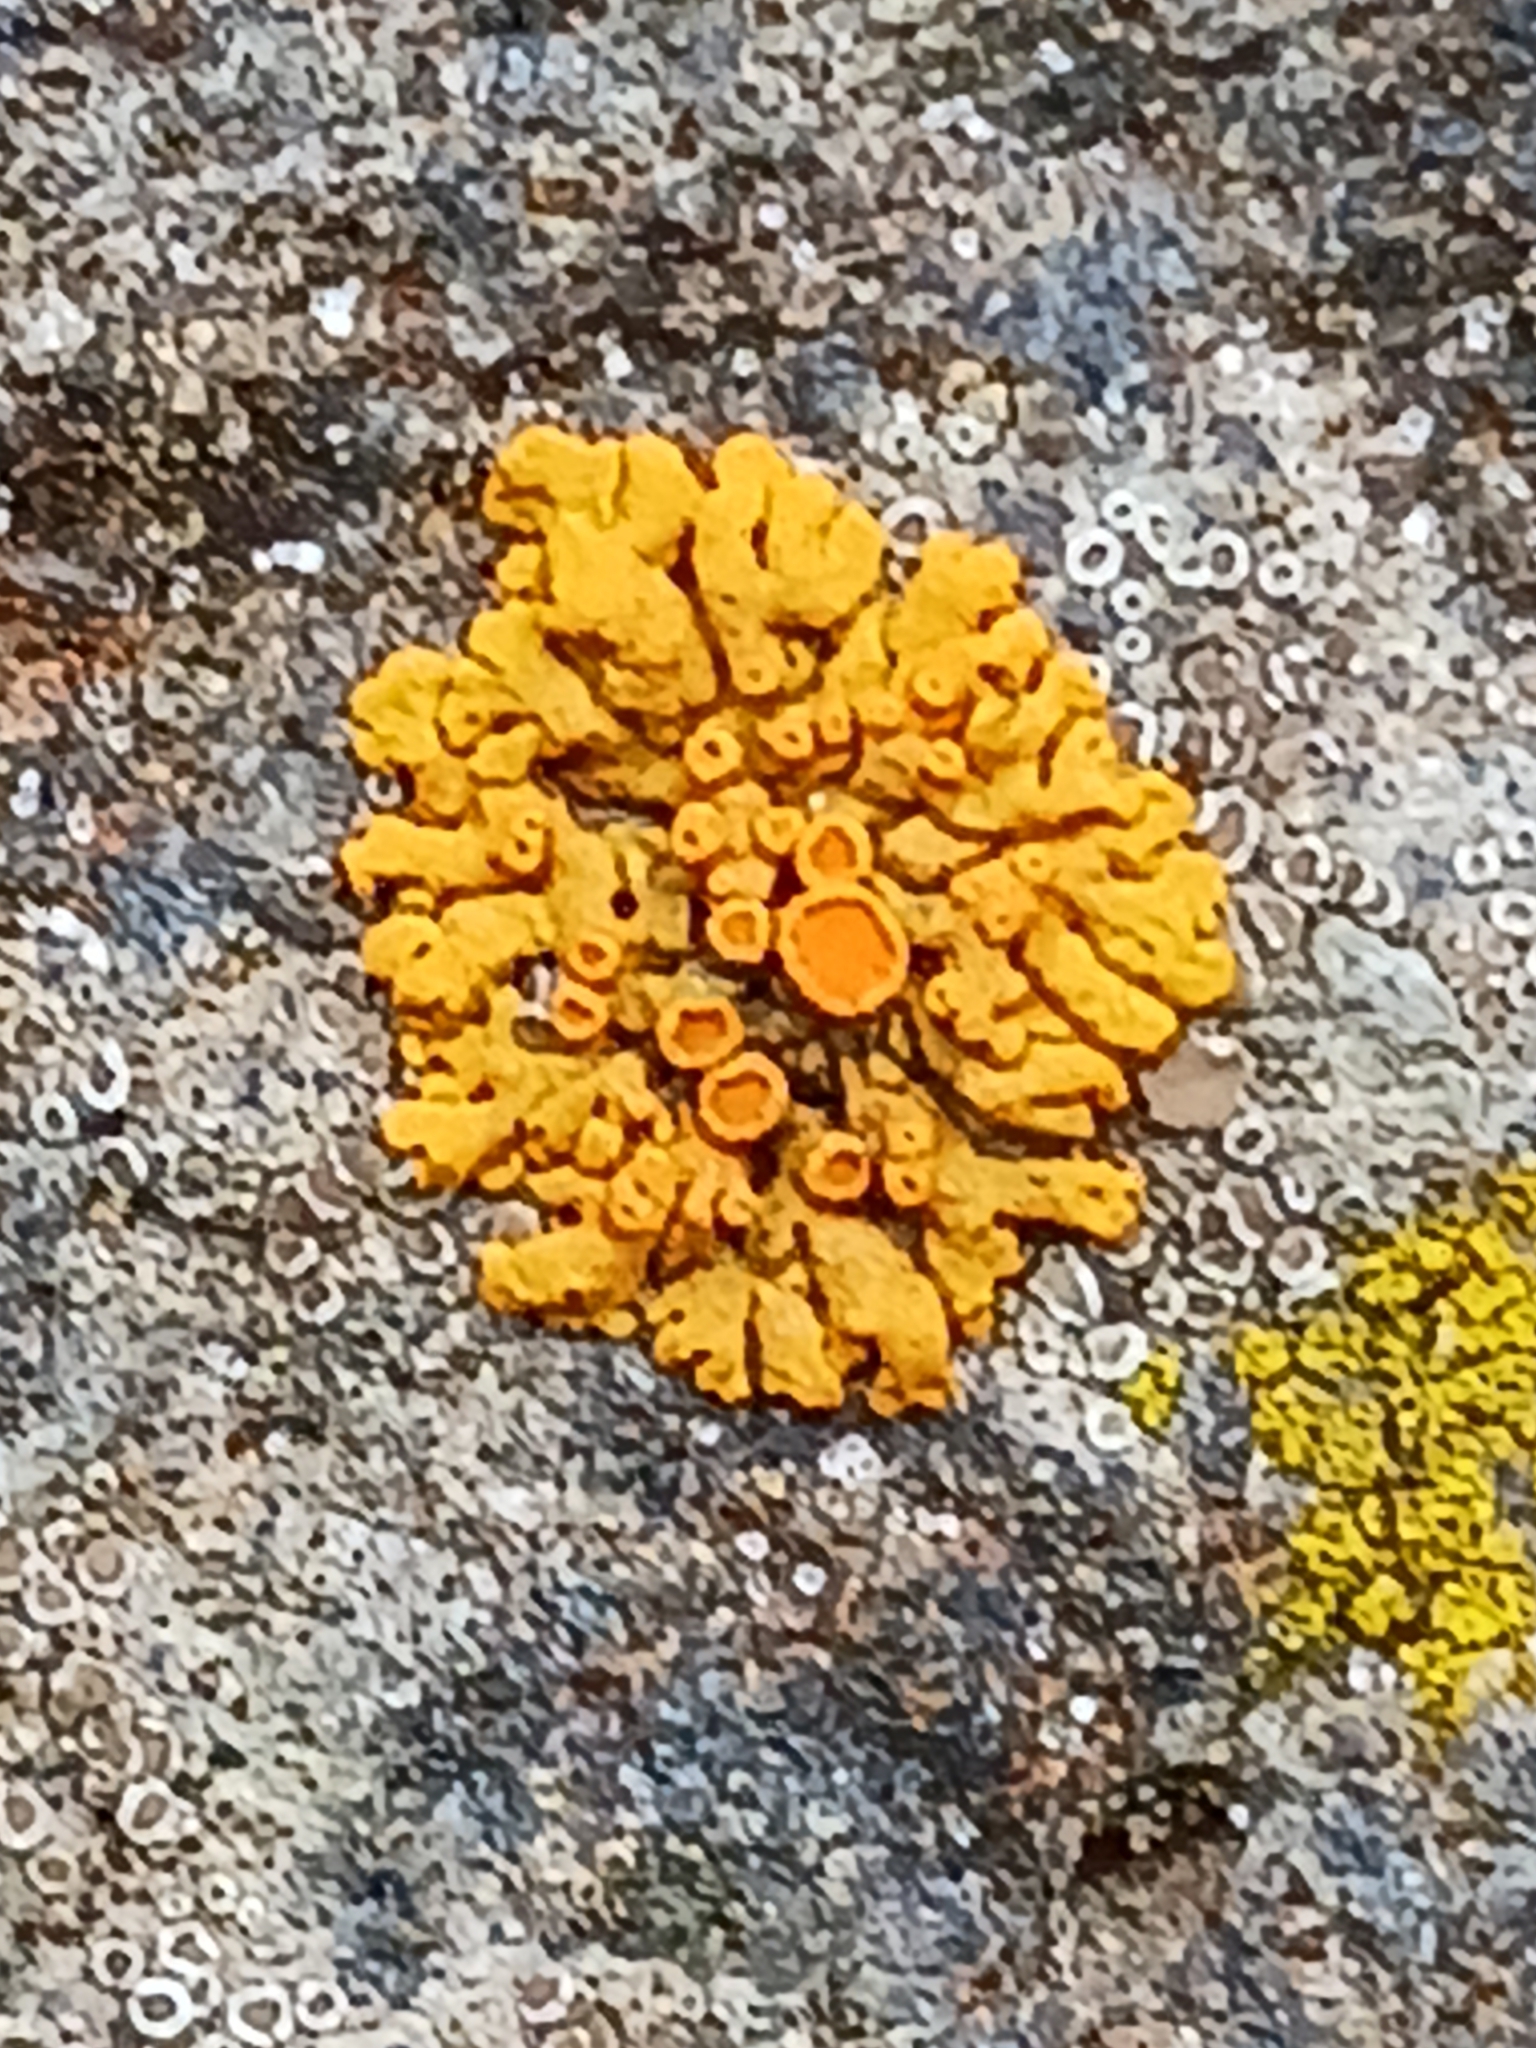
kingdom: Fungi
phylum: Ascomycota
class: Lecanoromycetes
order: Teloschistales
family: Teloschistaceae
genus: Xanthoria
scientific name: Xanthoria elegans
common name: Elegant sunburst lichen
